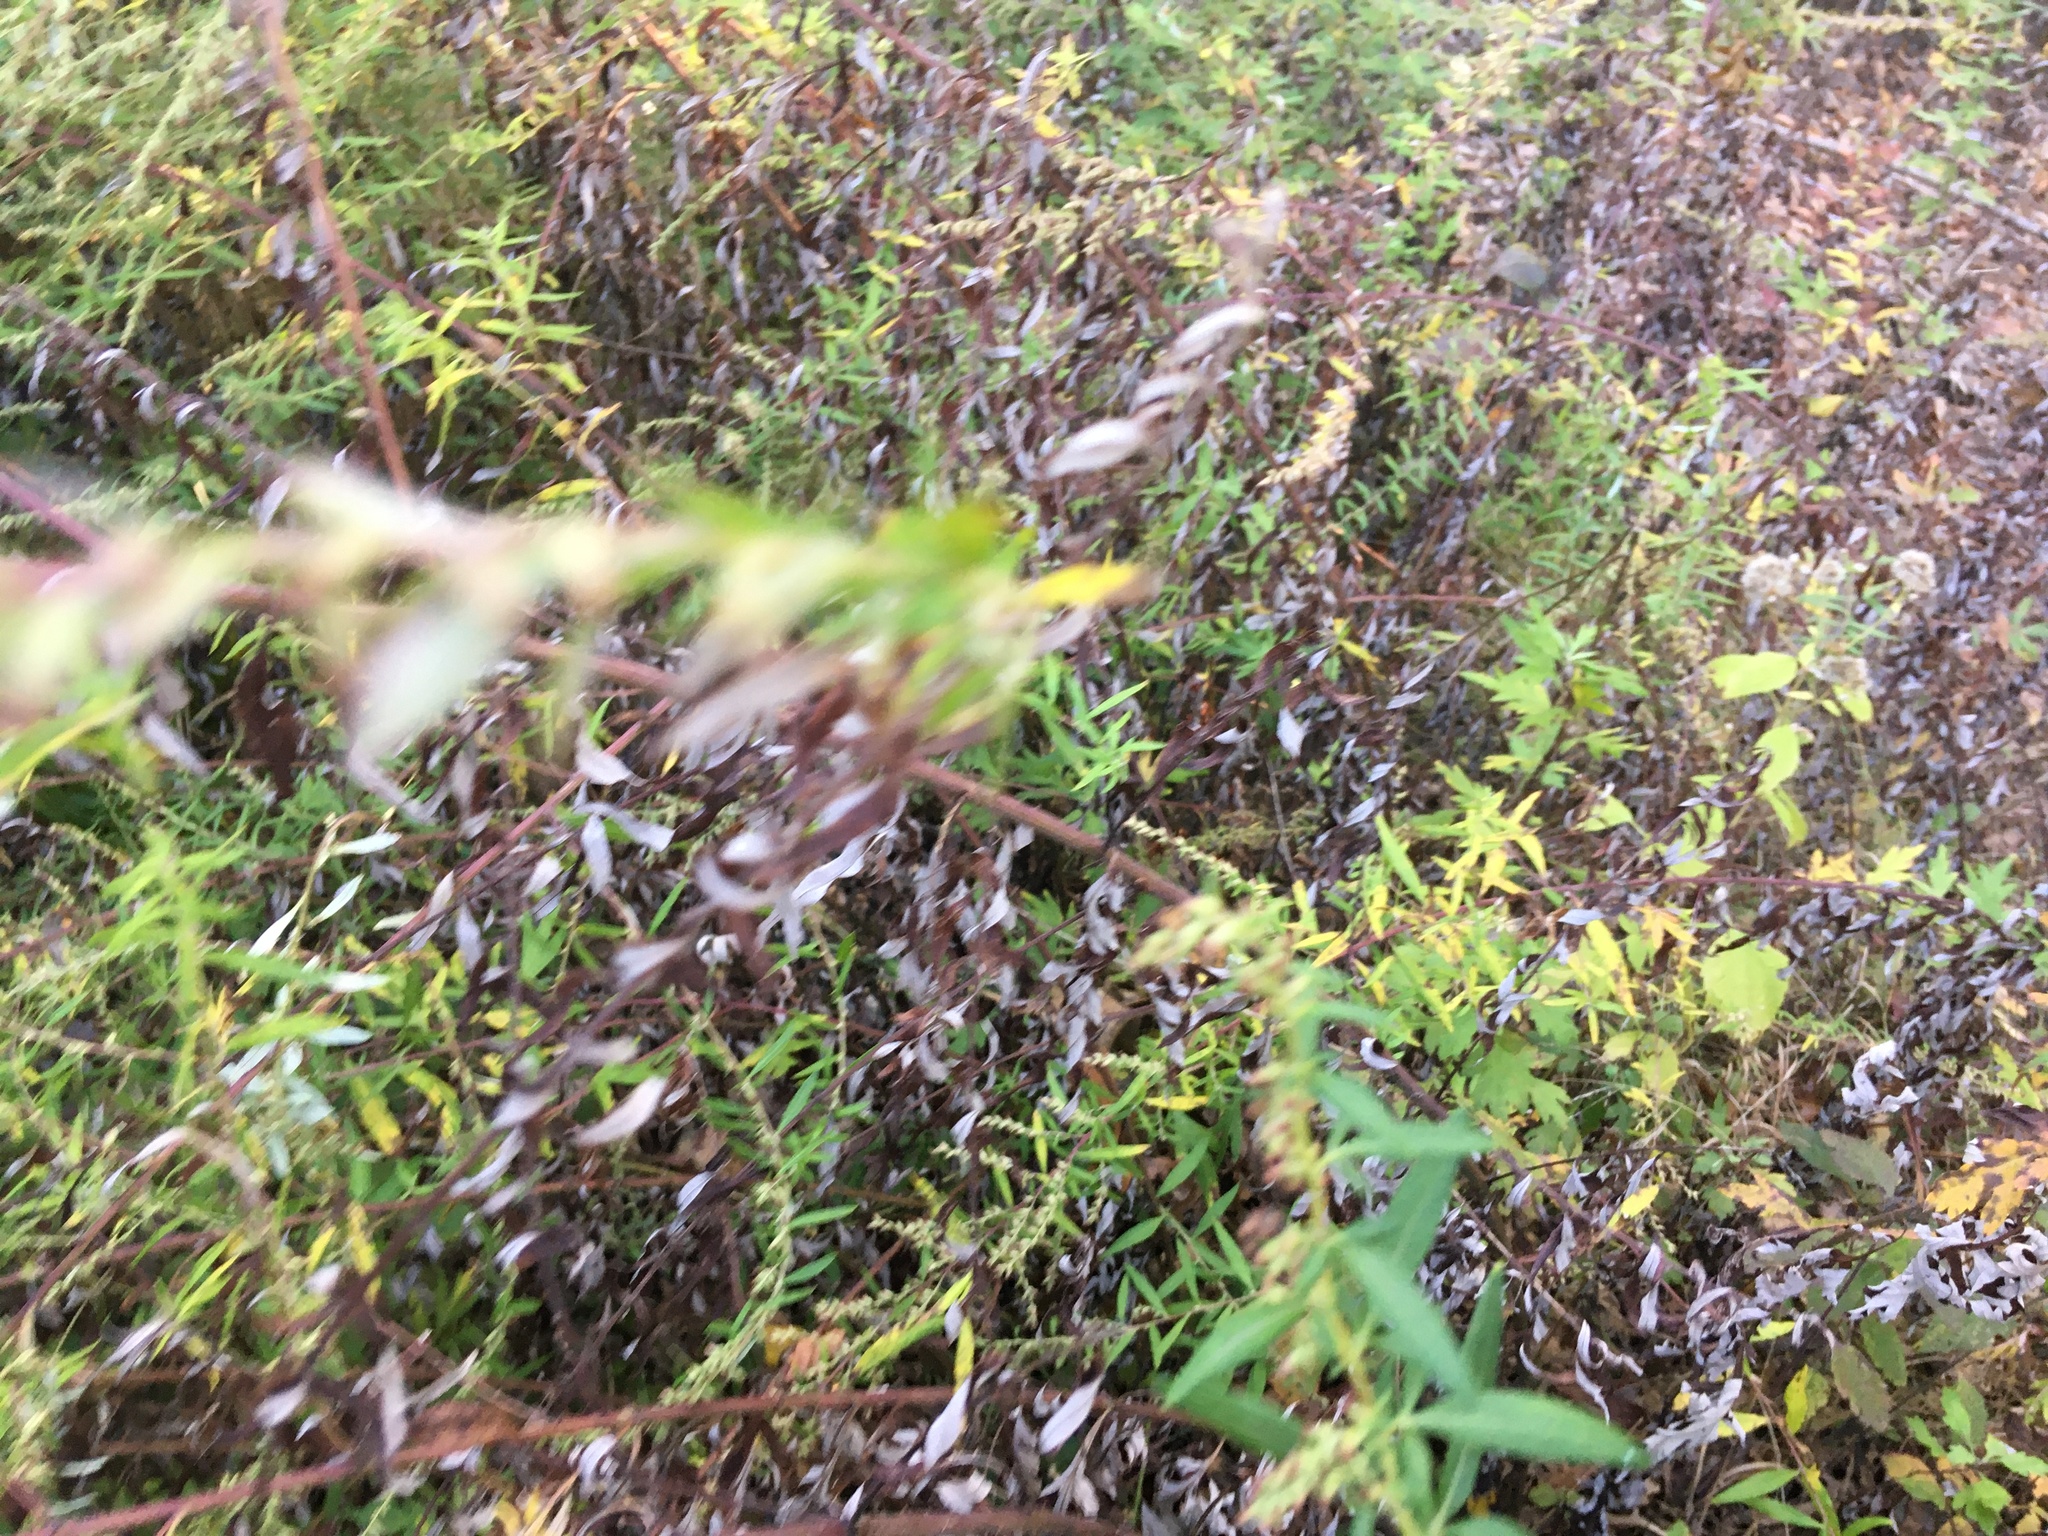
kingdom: Plantae
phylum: Tracheophyta
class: Magnoliopsida
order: Asterales
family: Asteraceae
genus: Artemisia
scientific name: Artemisia vulgaris
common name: Mugwort
